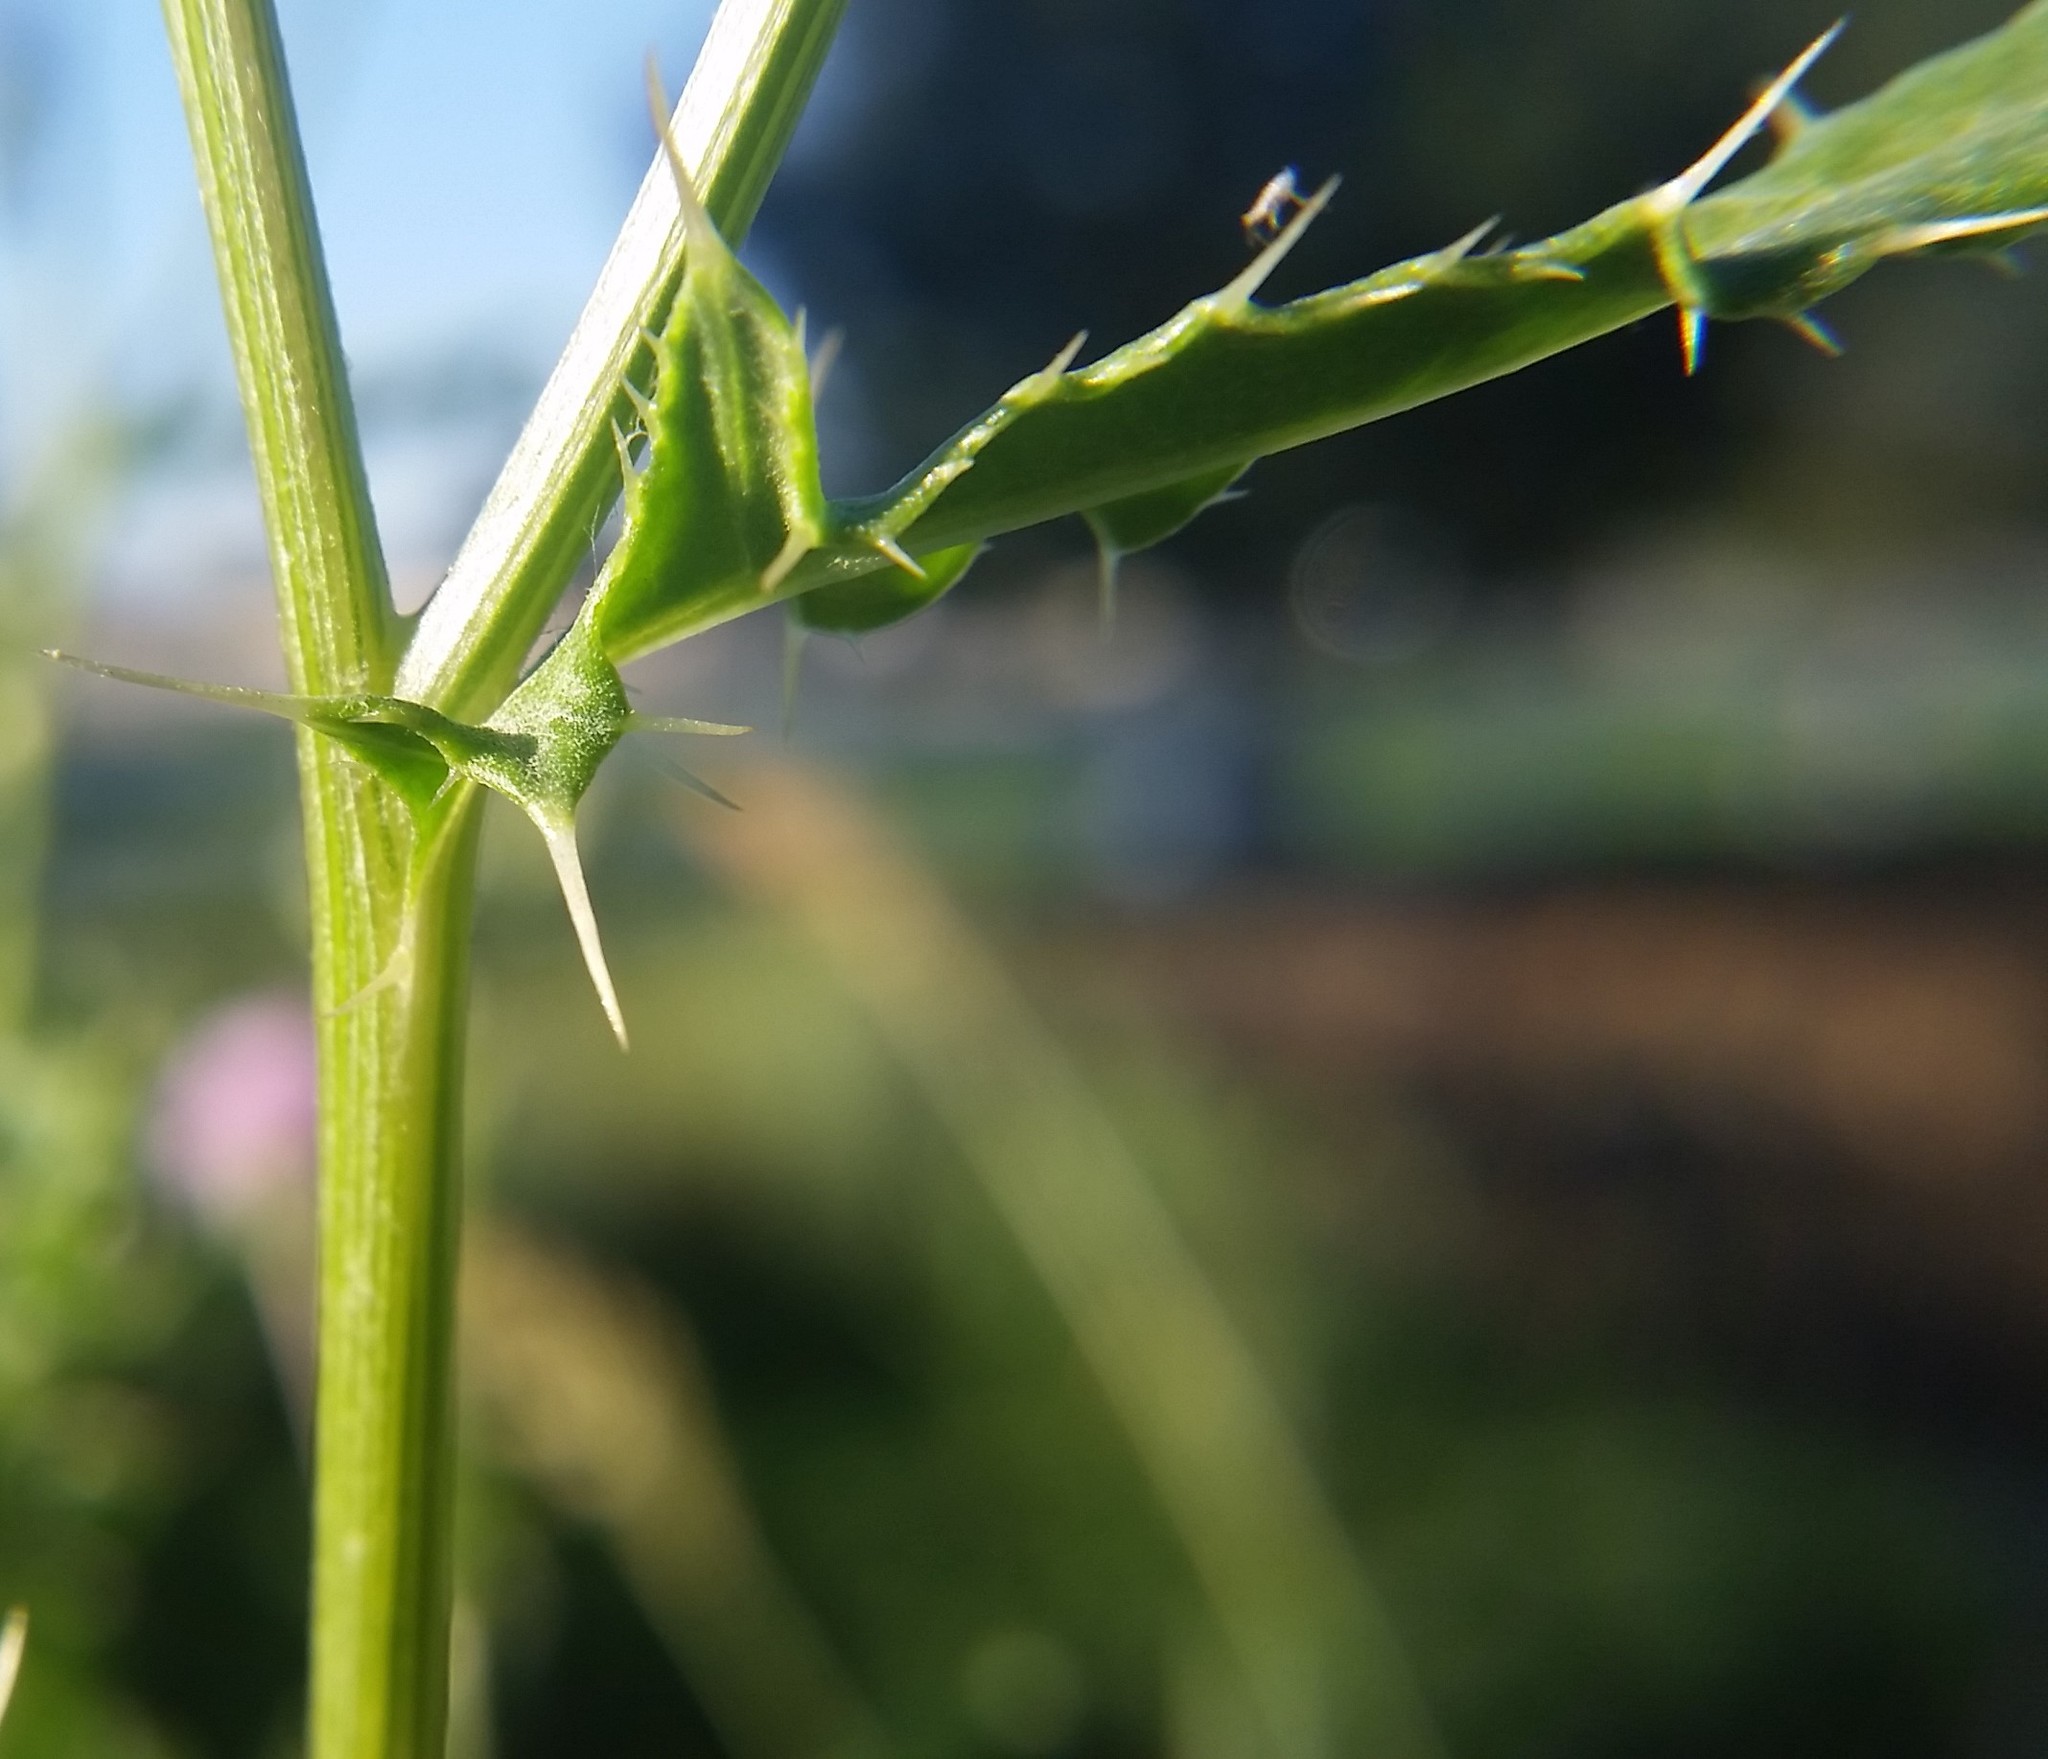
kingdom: Plantae
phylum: Tracheophyta
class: Magnoliopsida
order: Asterales
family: Asteraceae
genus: Cirsium
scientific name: Cirsium arvense
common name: Creeping thistle
